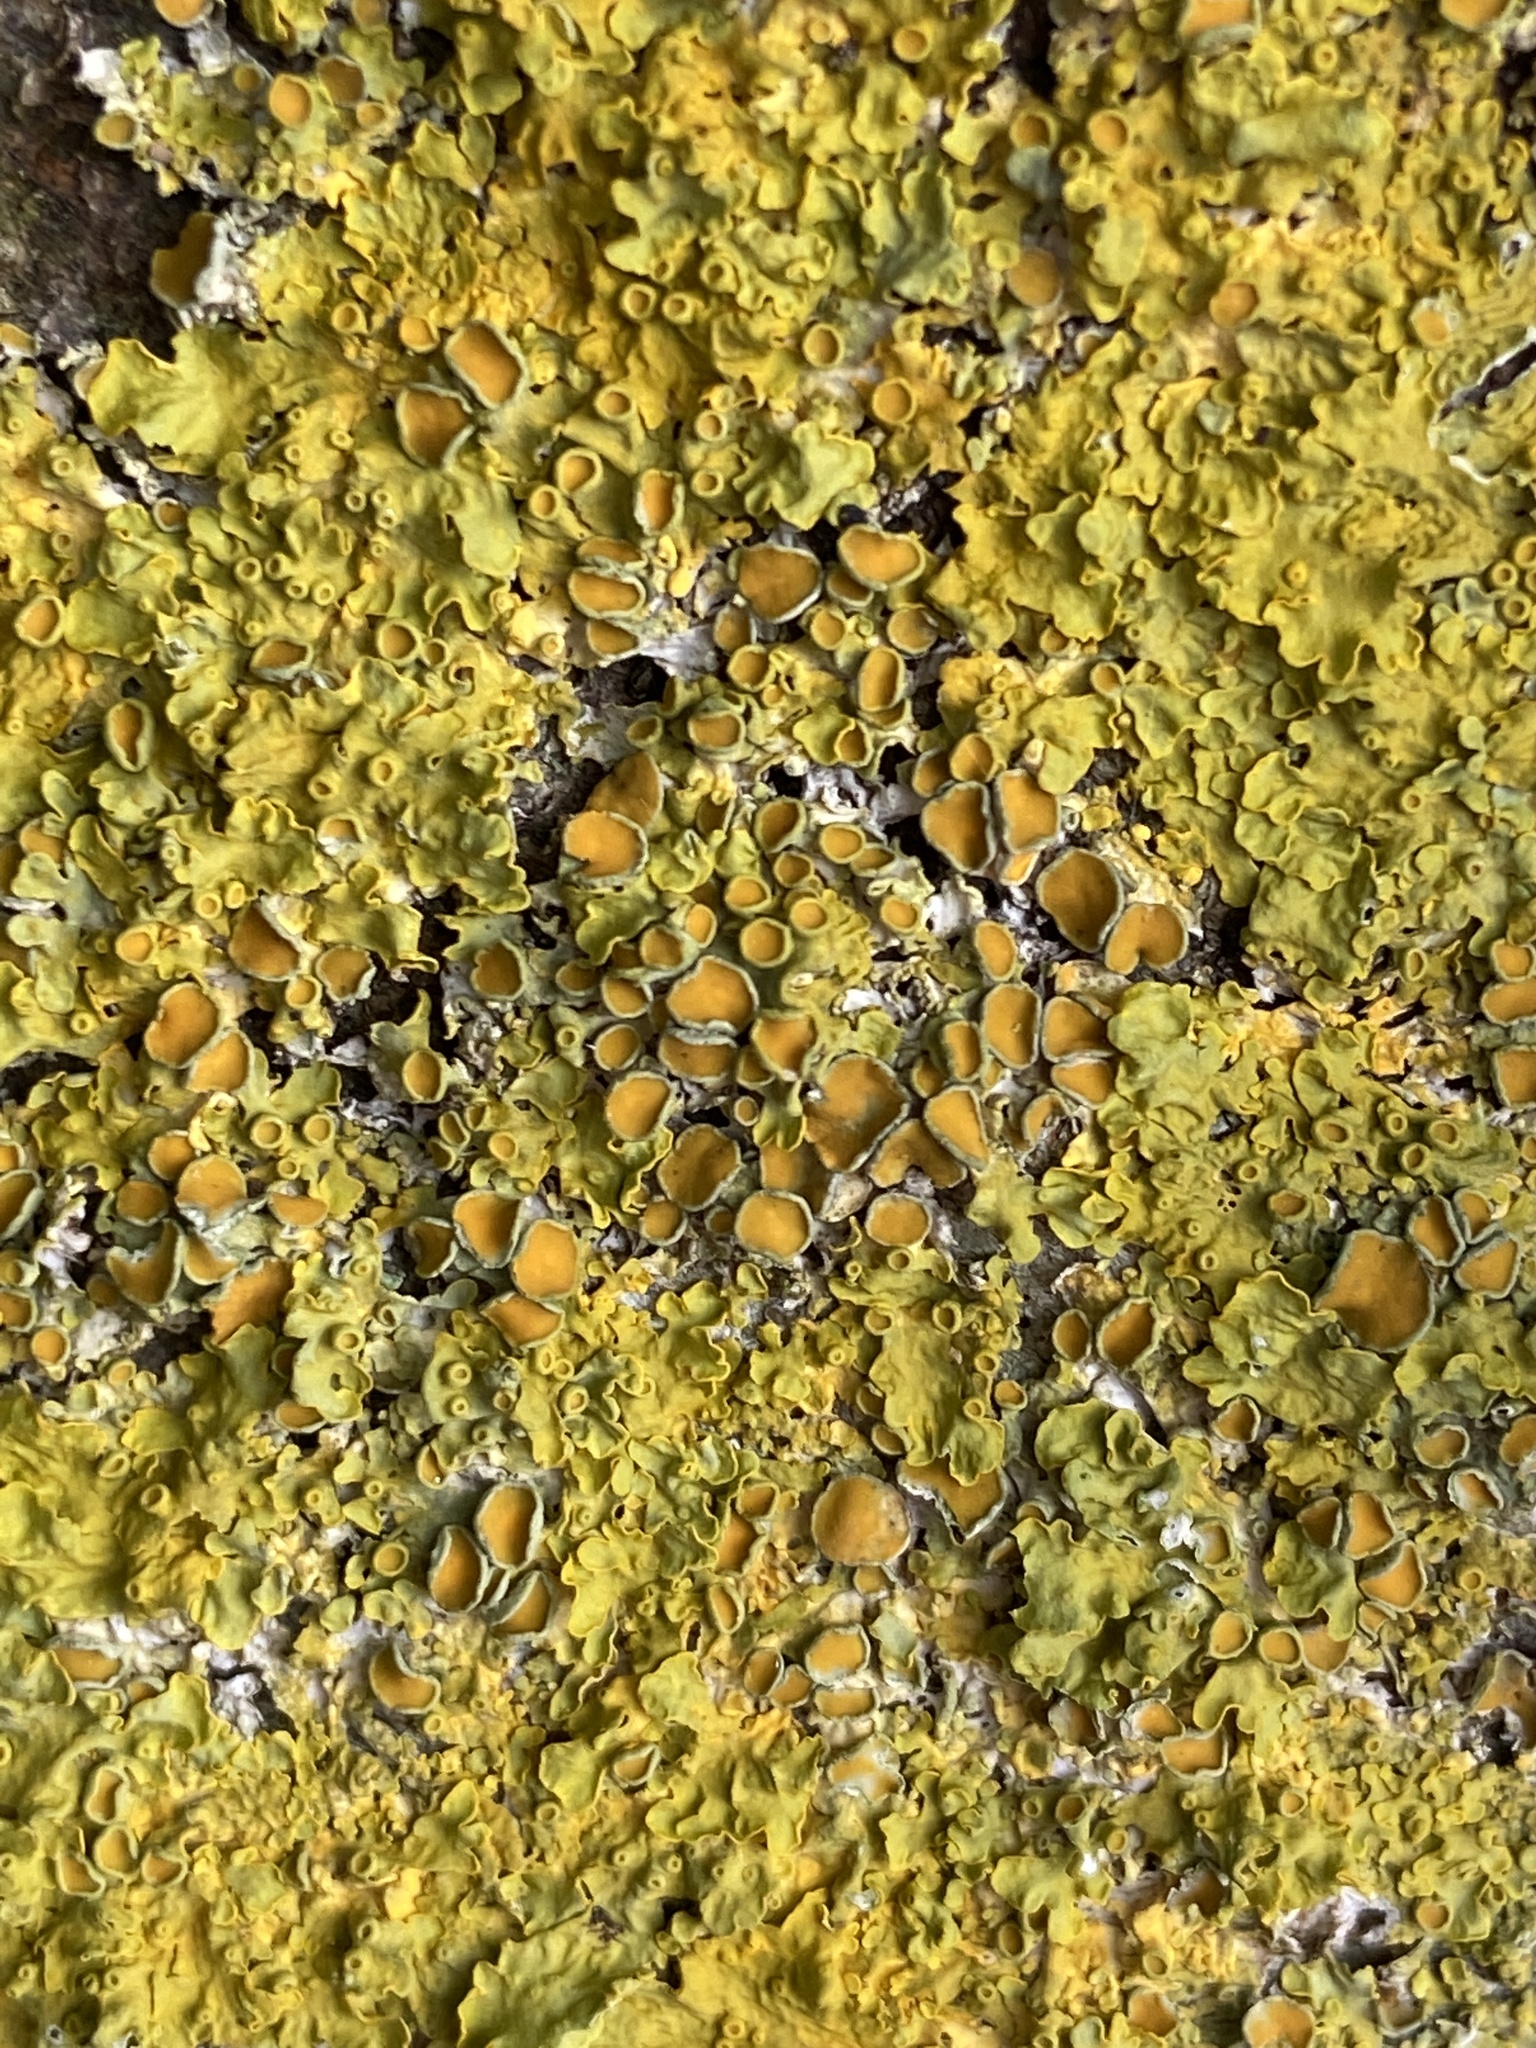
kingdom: Fungi
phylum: Ascomycota
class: Lecanoromycetes
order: Teloschistales
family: Teloschistaceae
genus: Xanthoria
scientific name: Xanthoria parietina
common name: Common orange lichen
